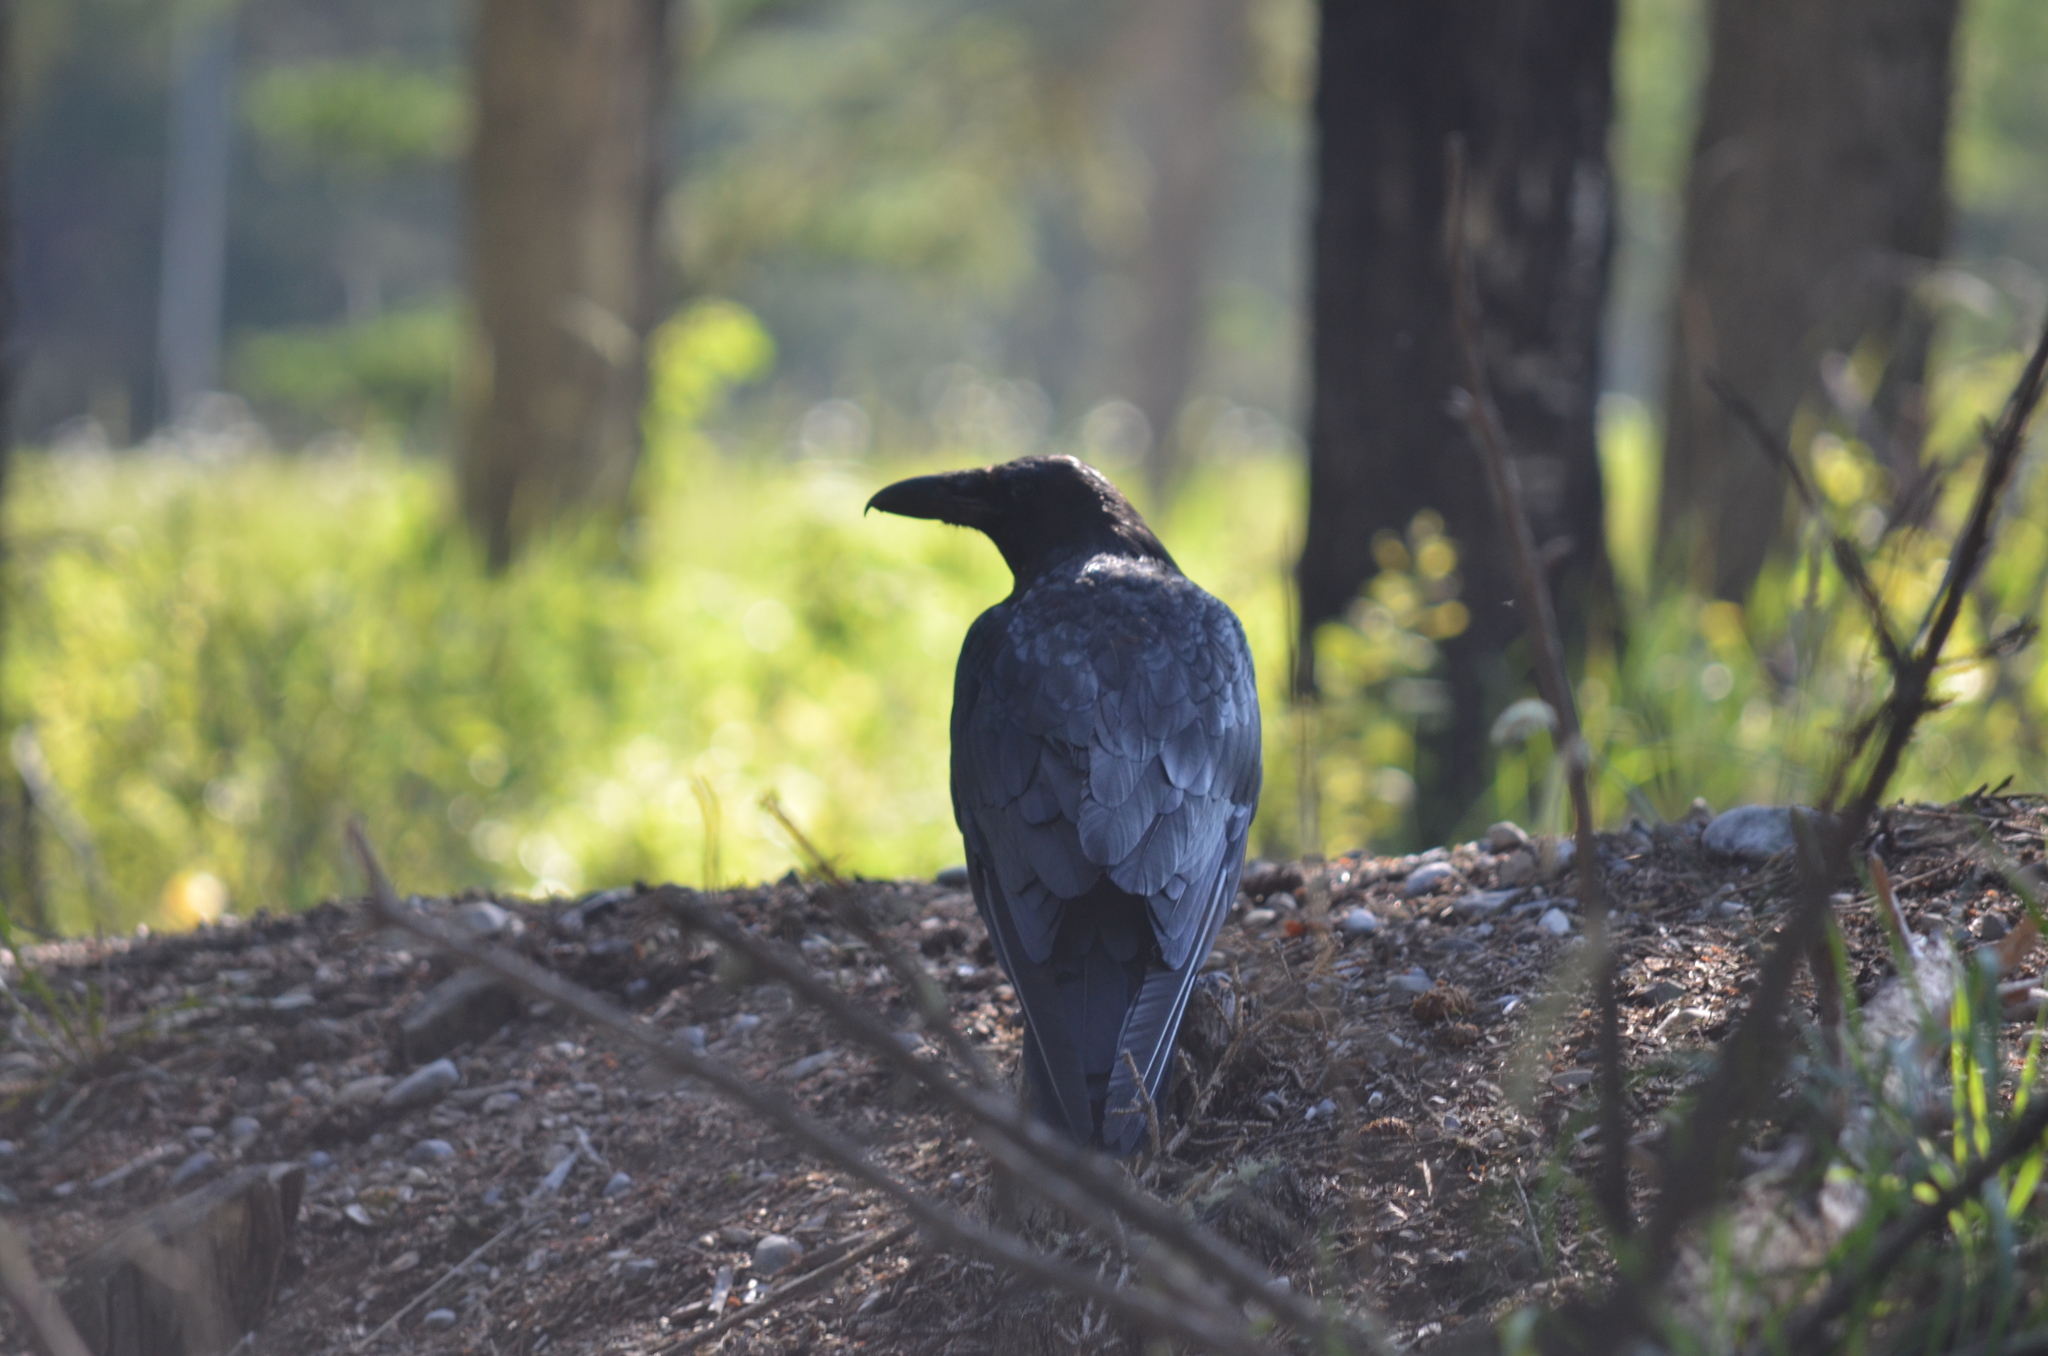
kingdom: Animalia
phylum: Chordata
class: Aves
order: Passeriformes
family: Corvidae
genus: Corvus
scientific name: Corvus corax
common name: Common raven
